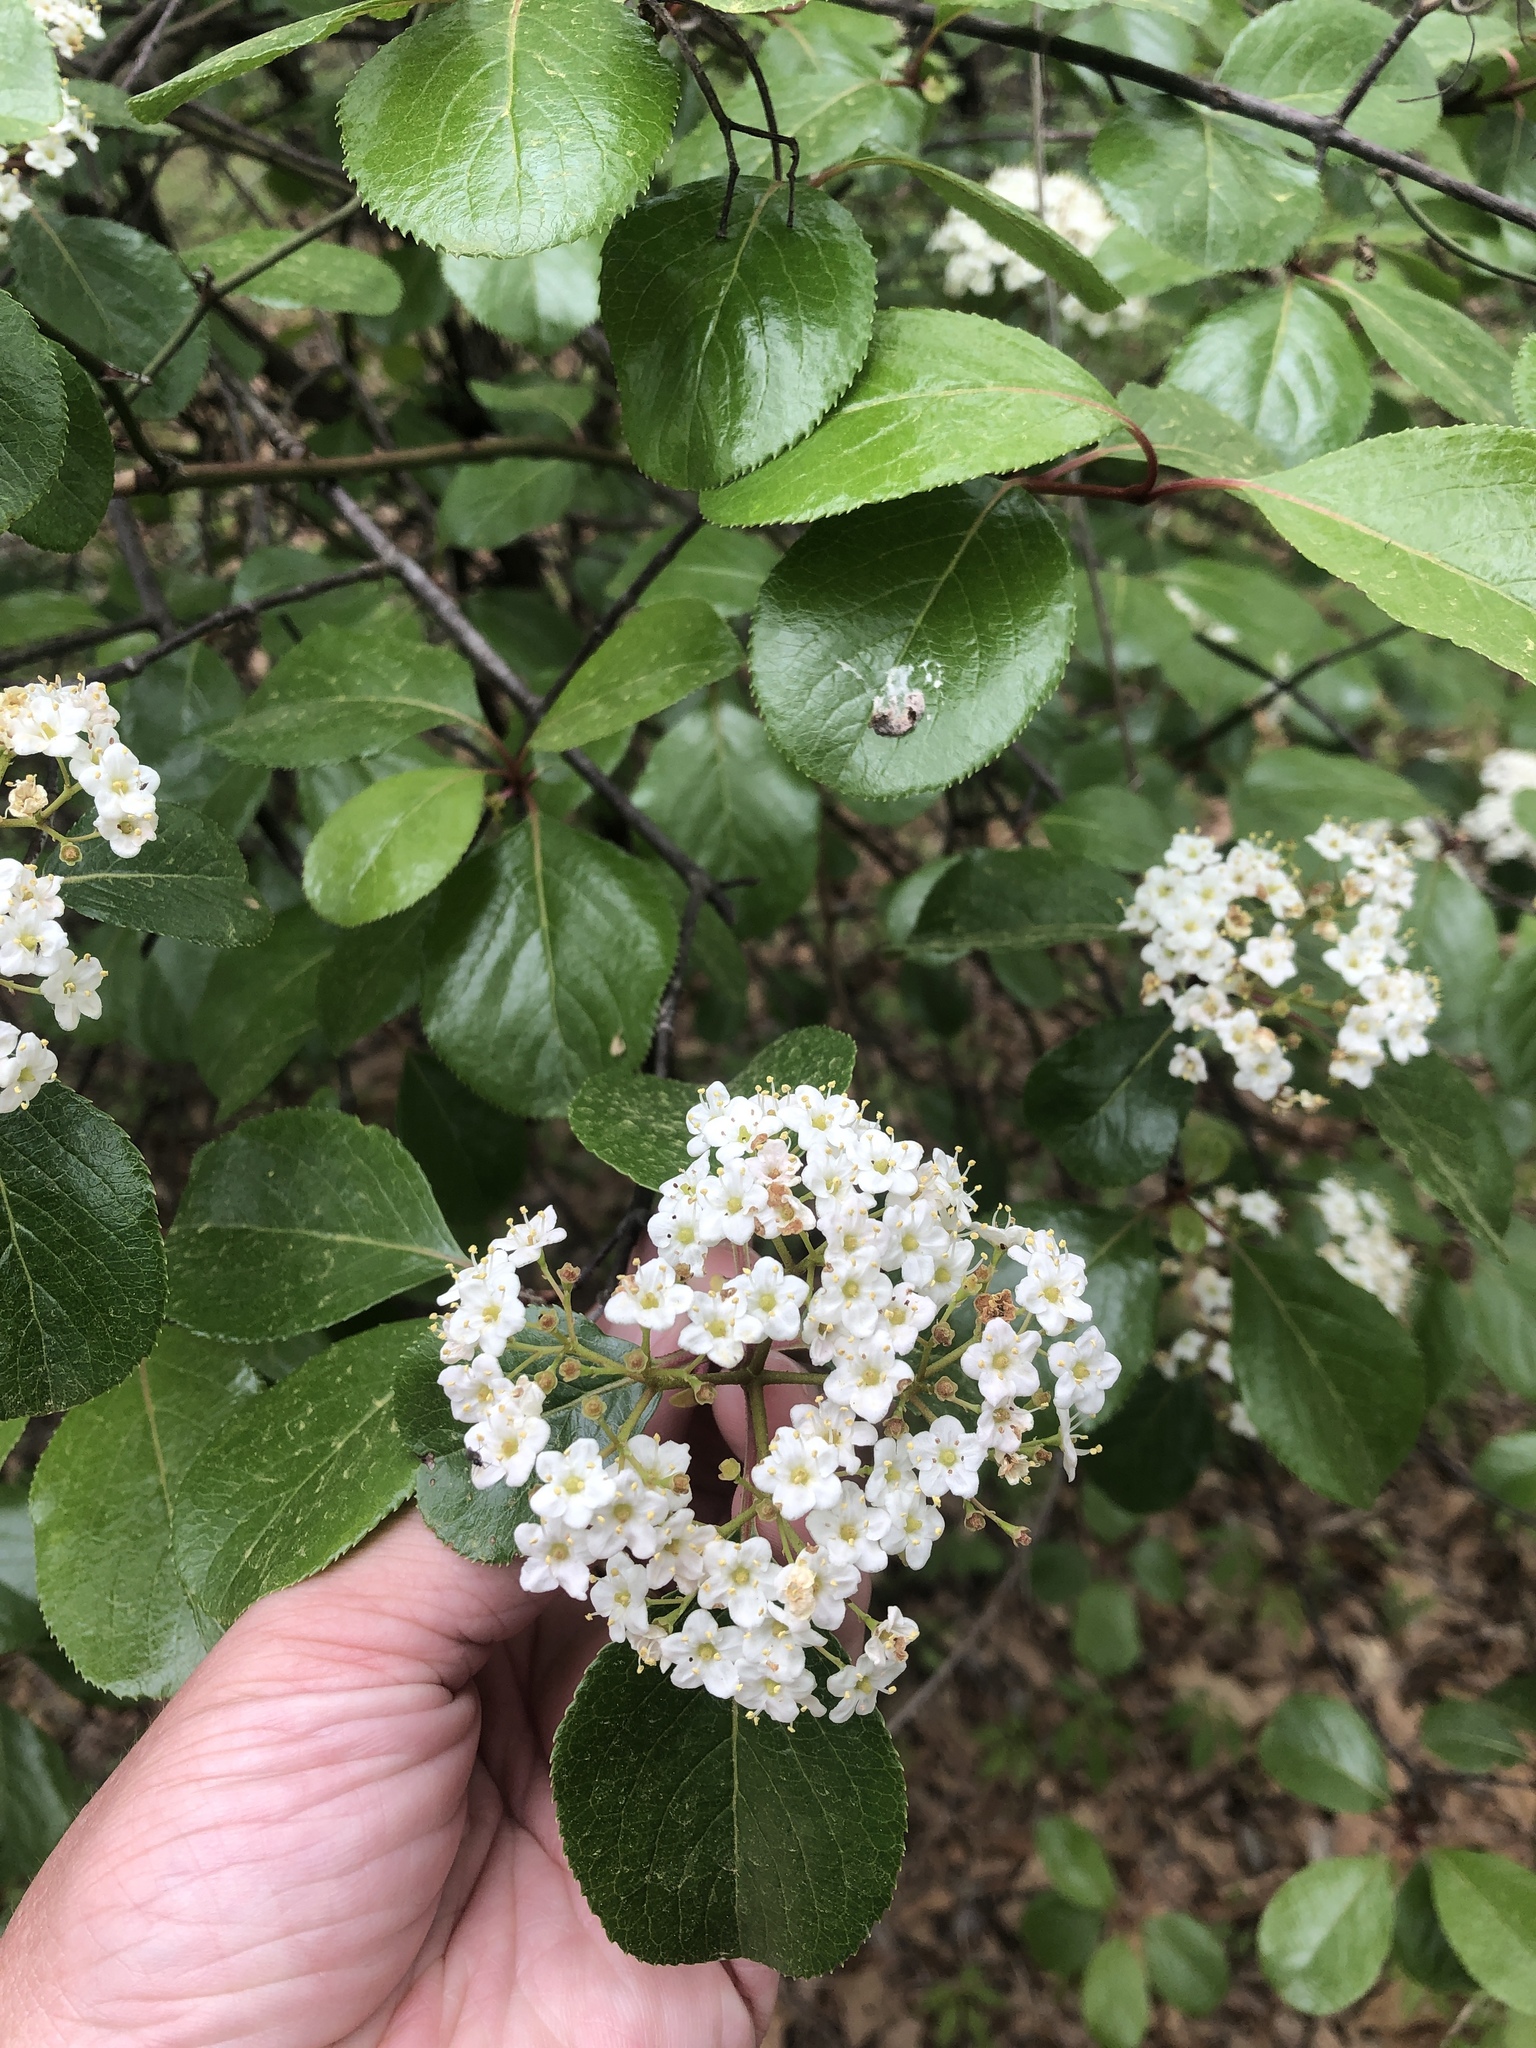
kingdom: Plantae
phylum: Tracheophyta
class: Magnoliopsida
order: Dipsacales
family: Viburnaceae
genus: Viburnum
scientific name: Viburnum rufidulum
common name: Blue haw
